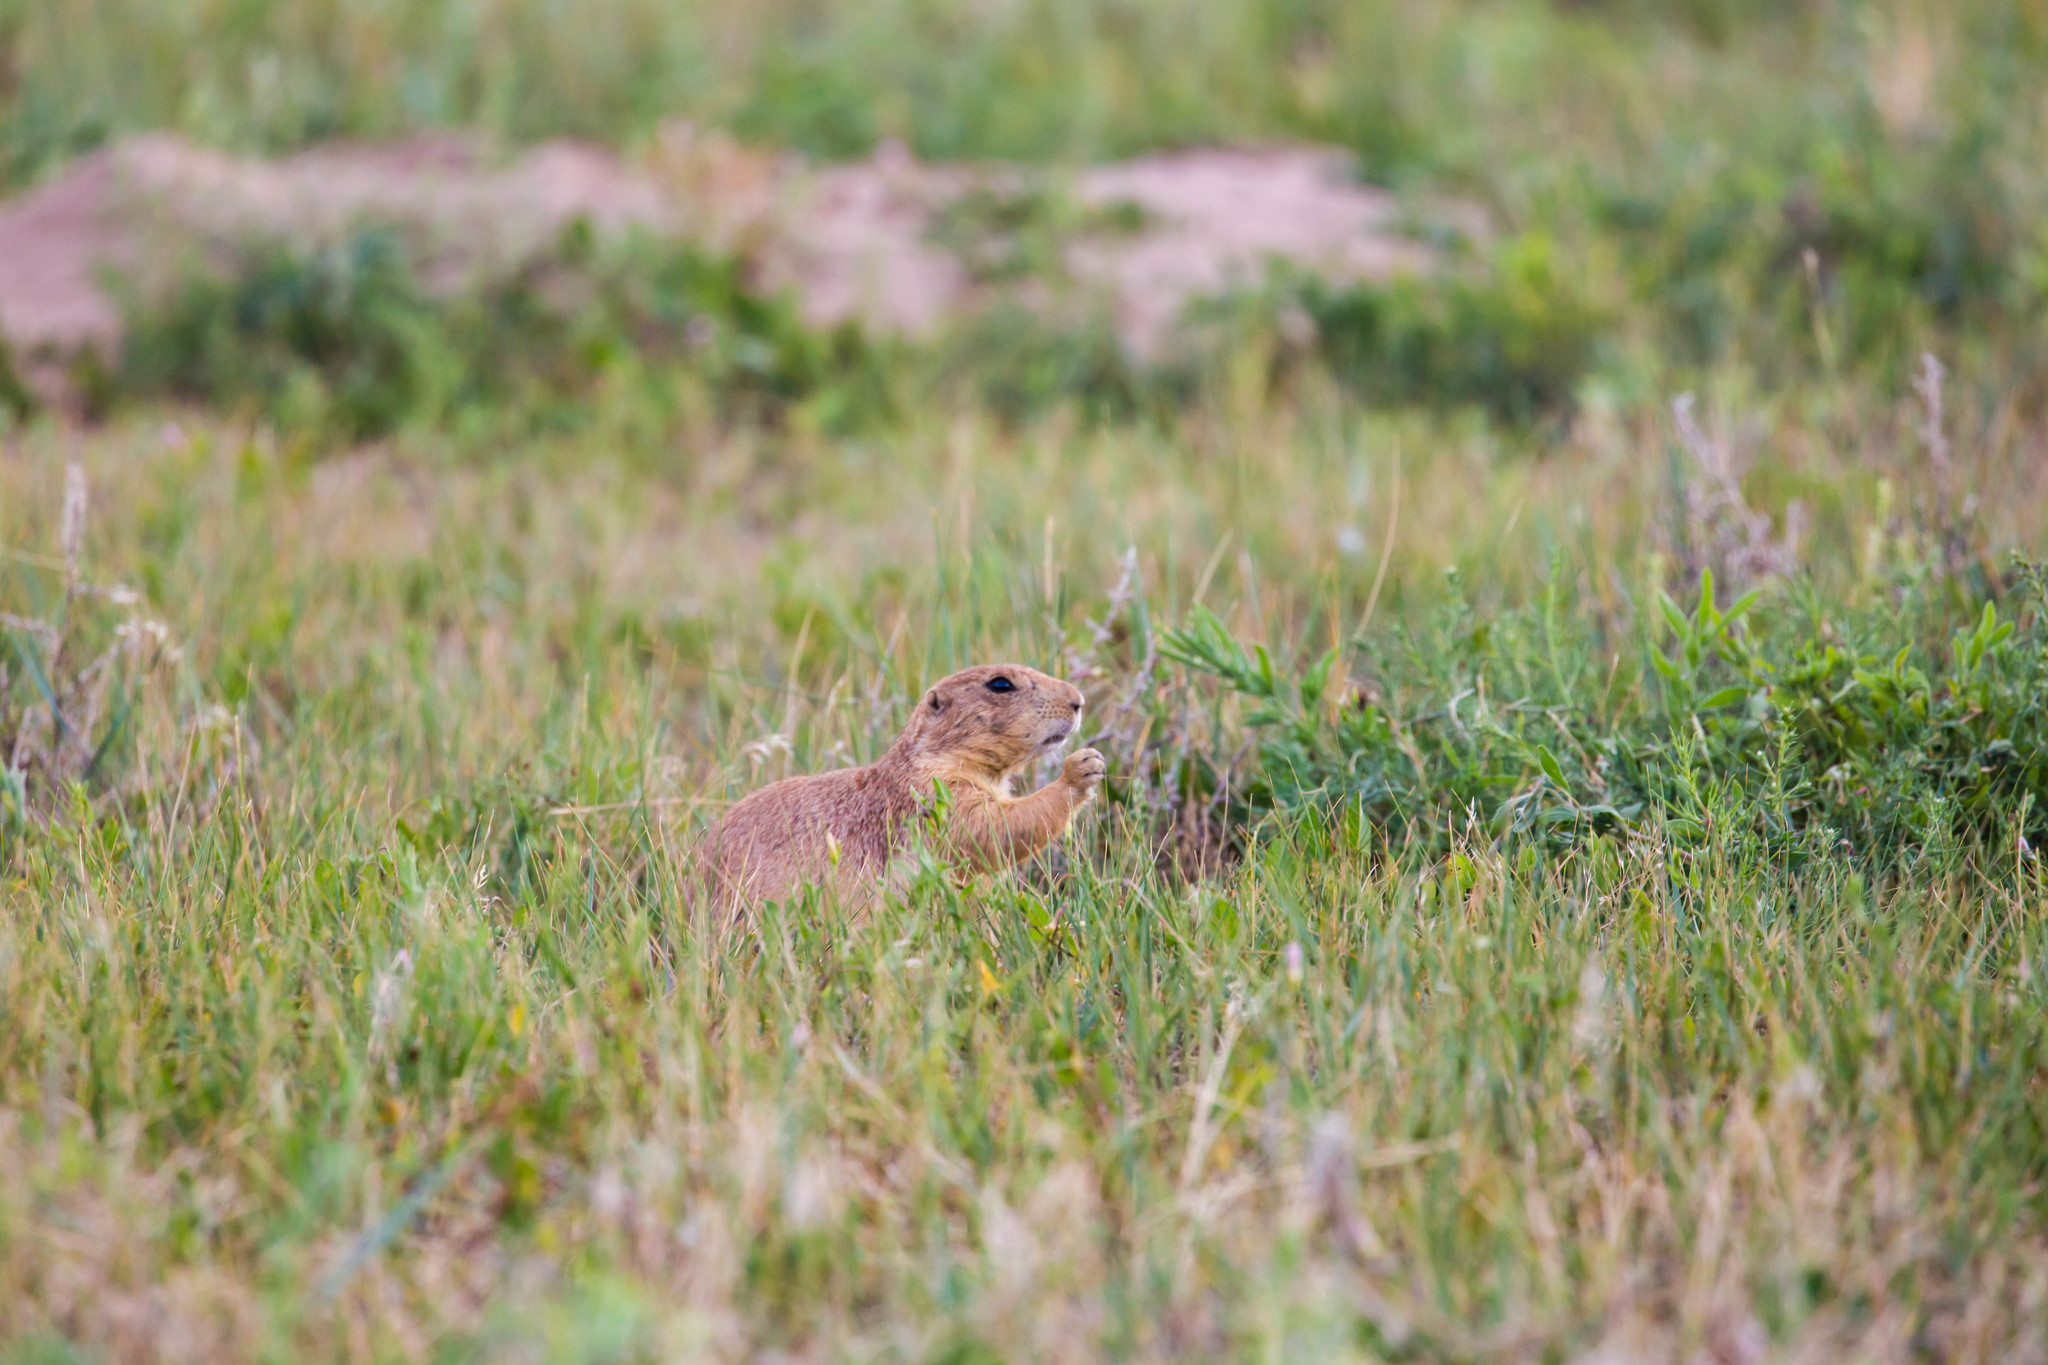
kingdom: Animalia
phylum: Chordata
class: Mammalia
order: Rodentia
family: Sciuridae
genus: Cynomys
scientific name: Cynomys ludovicianus
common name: Black-tailed prairie dog
